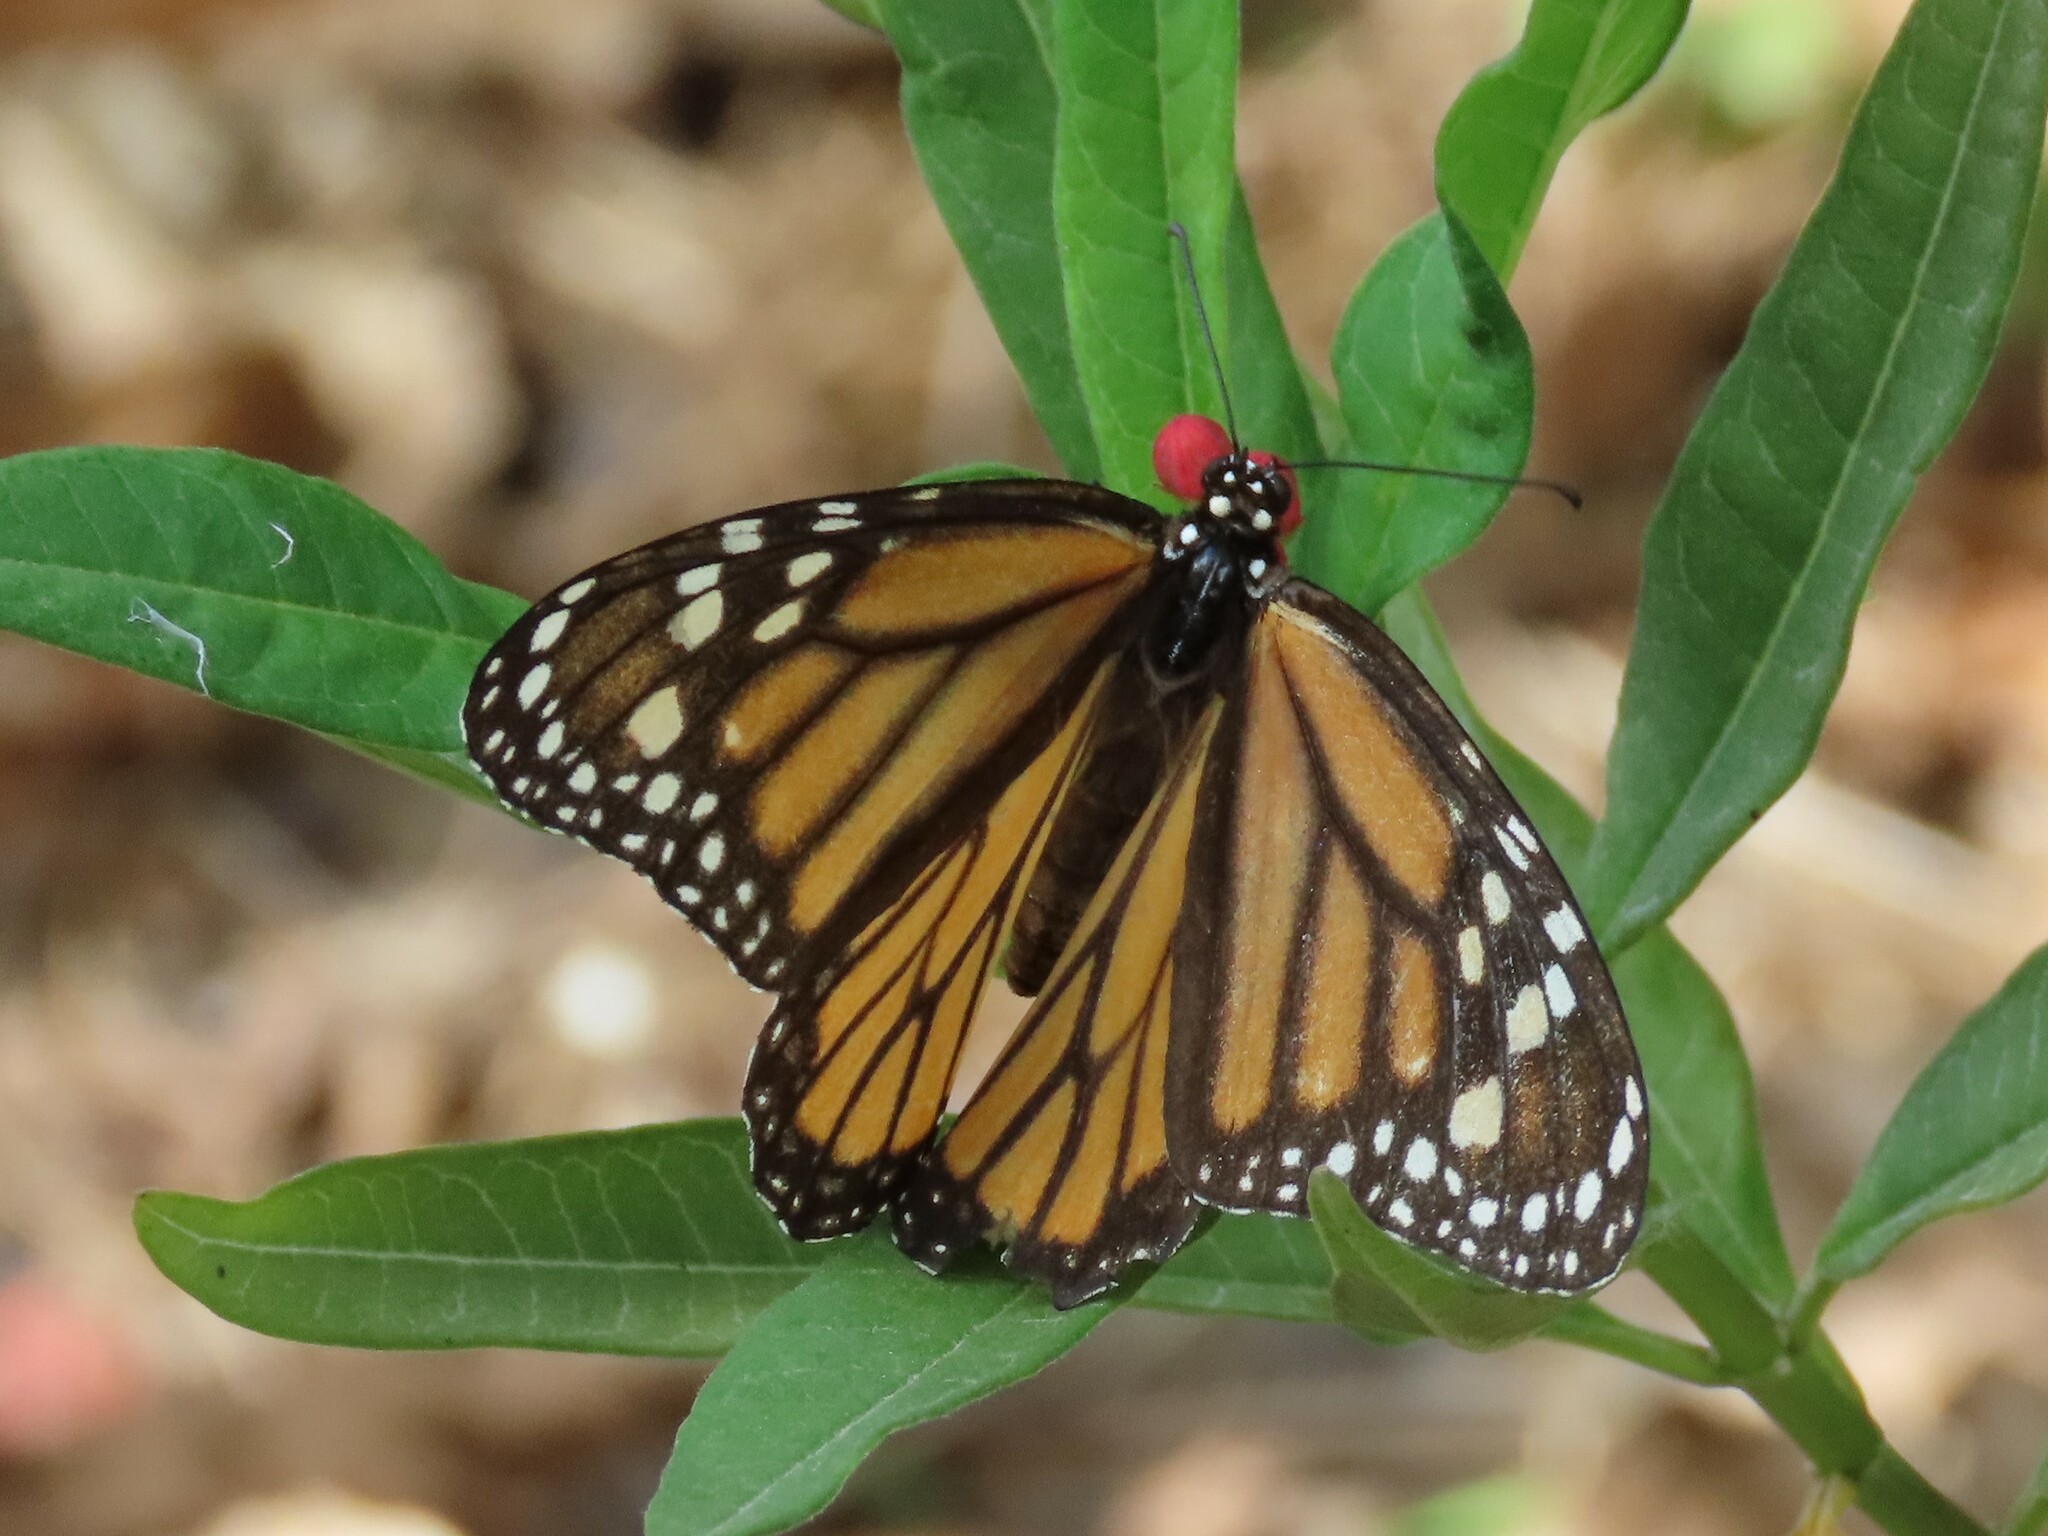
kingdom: Animalia
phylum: Arthropoda
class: Insecta
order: Lepidoptera
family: Nymphalidae
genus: Danaus
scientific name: Danaus plexippus
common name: Monarch
